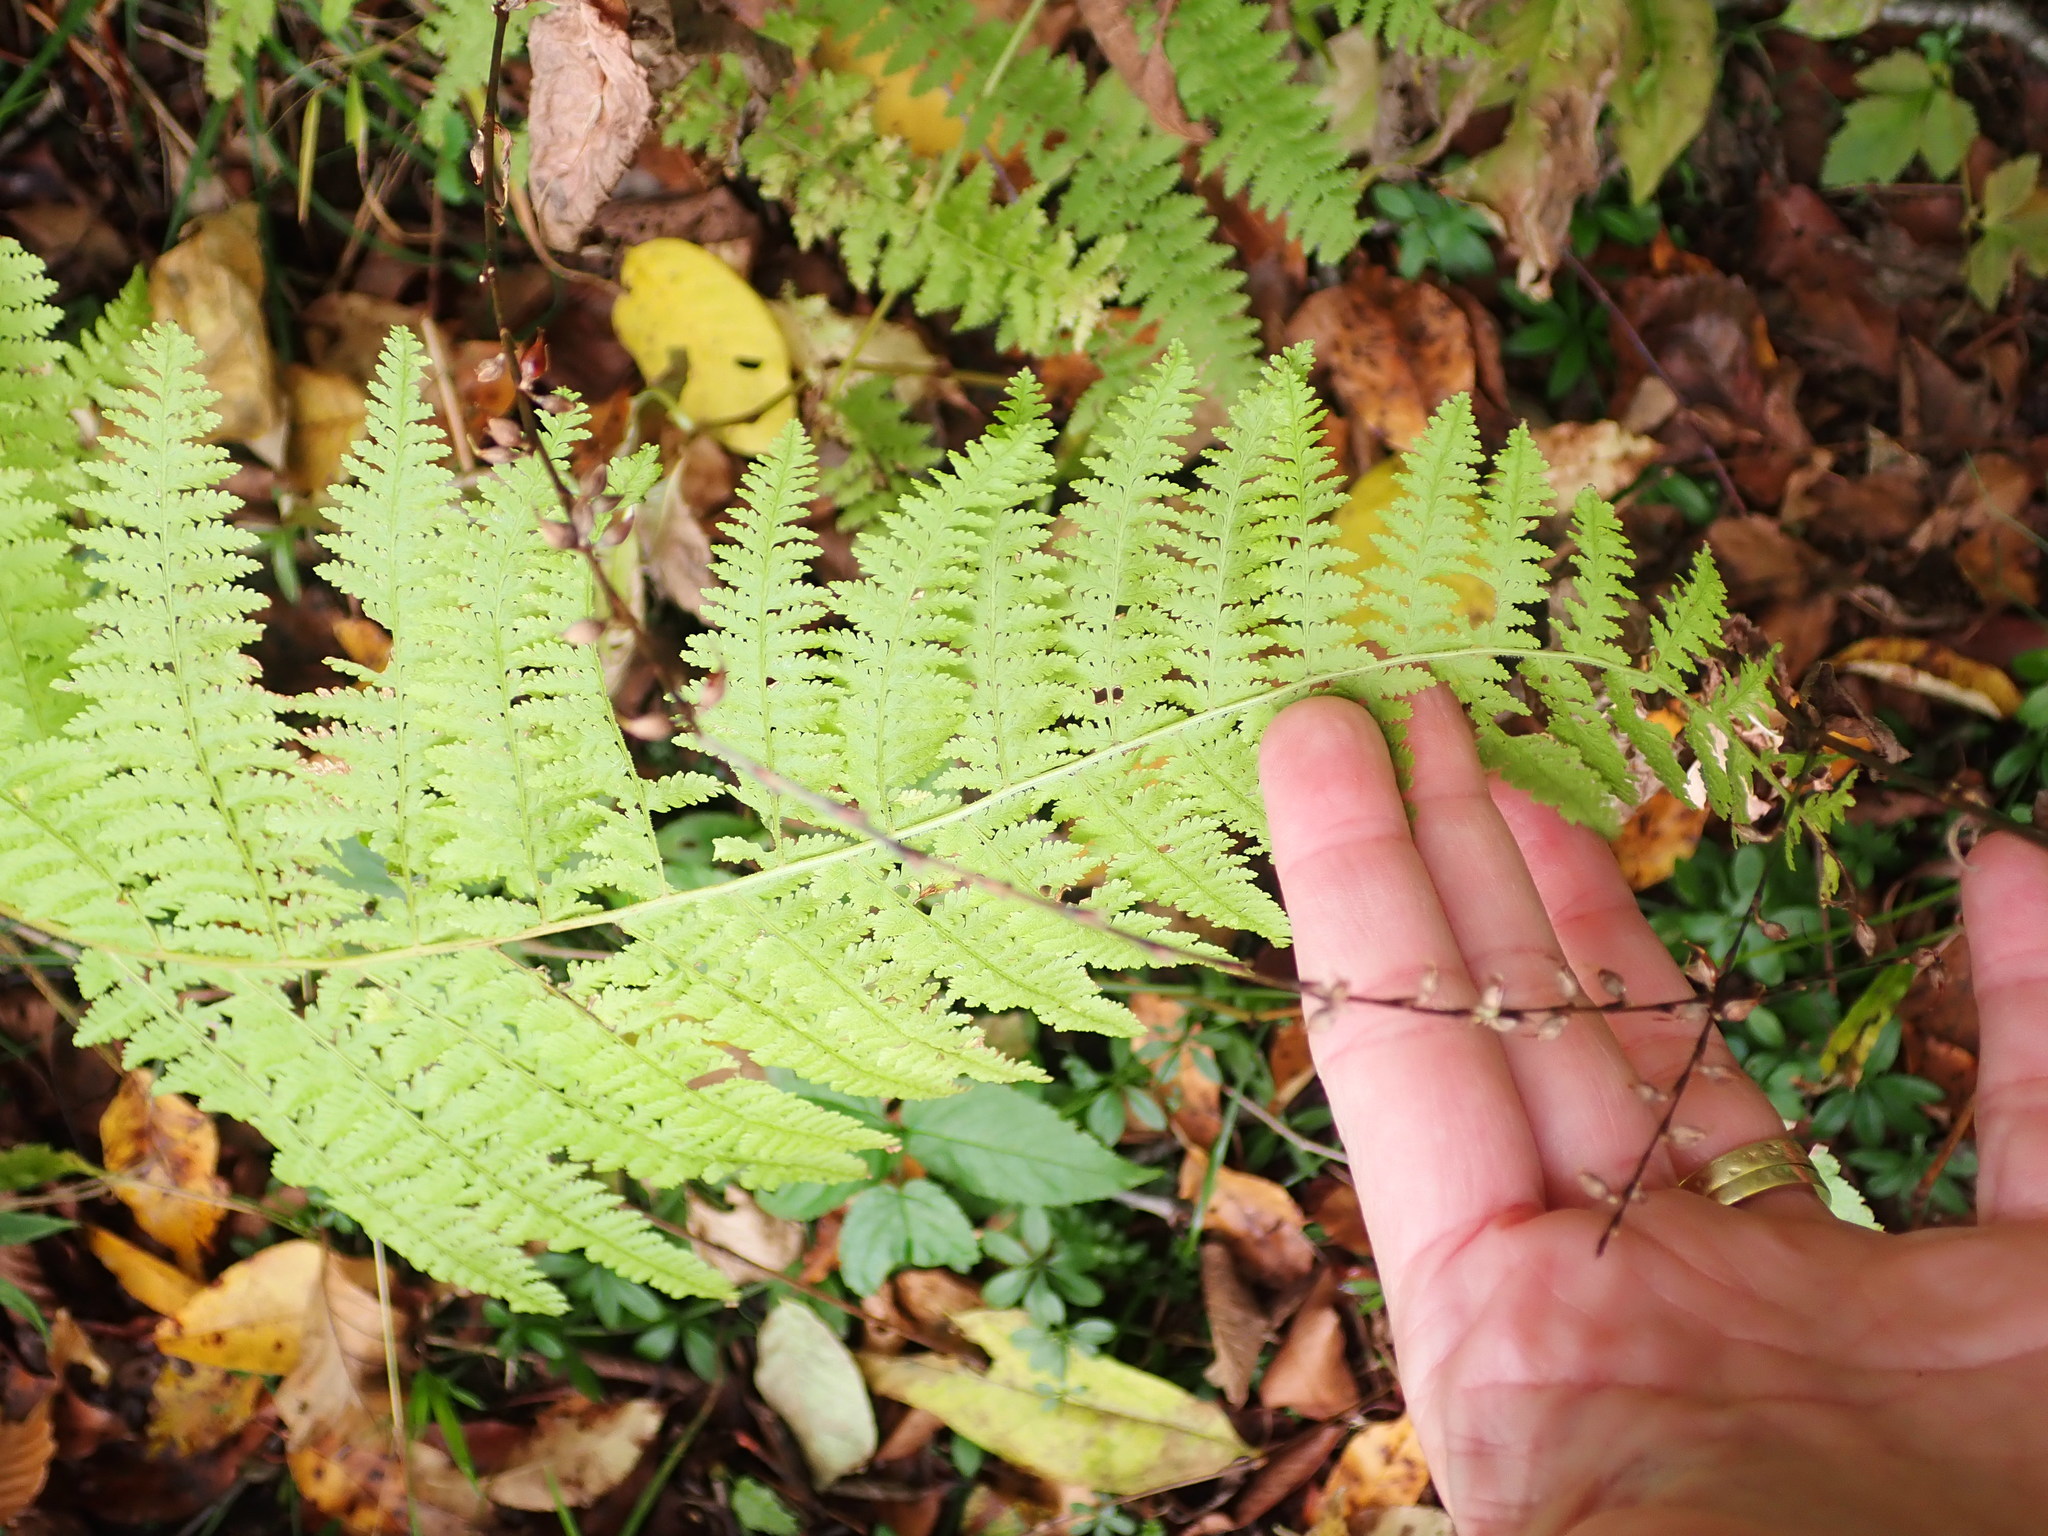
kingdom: Plantae
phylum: Tracheophyta
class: Polypodiopsida
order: Polypodiales
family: Dennstaedtiaceae
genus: Sitobolium
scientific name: Sitobolium punctilobum
